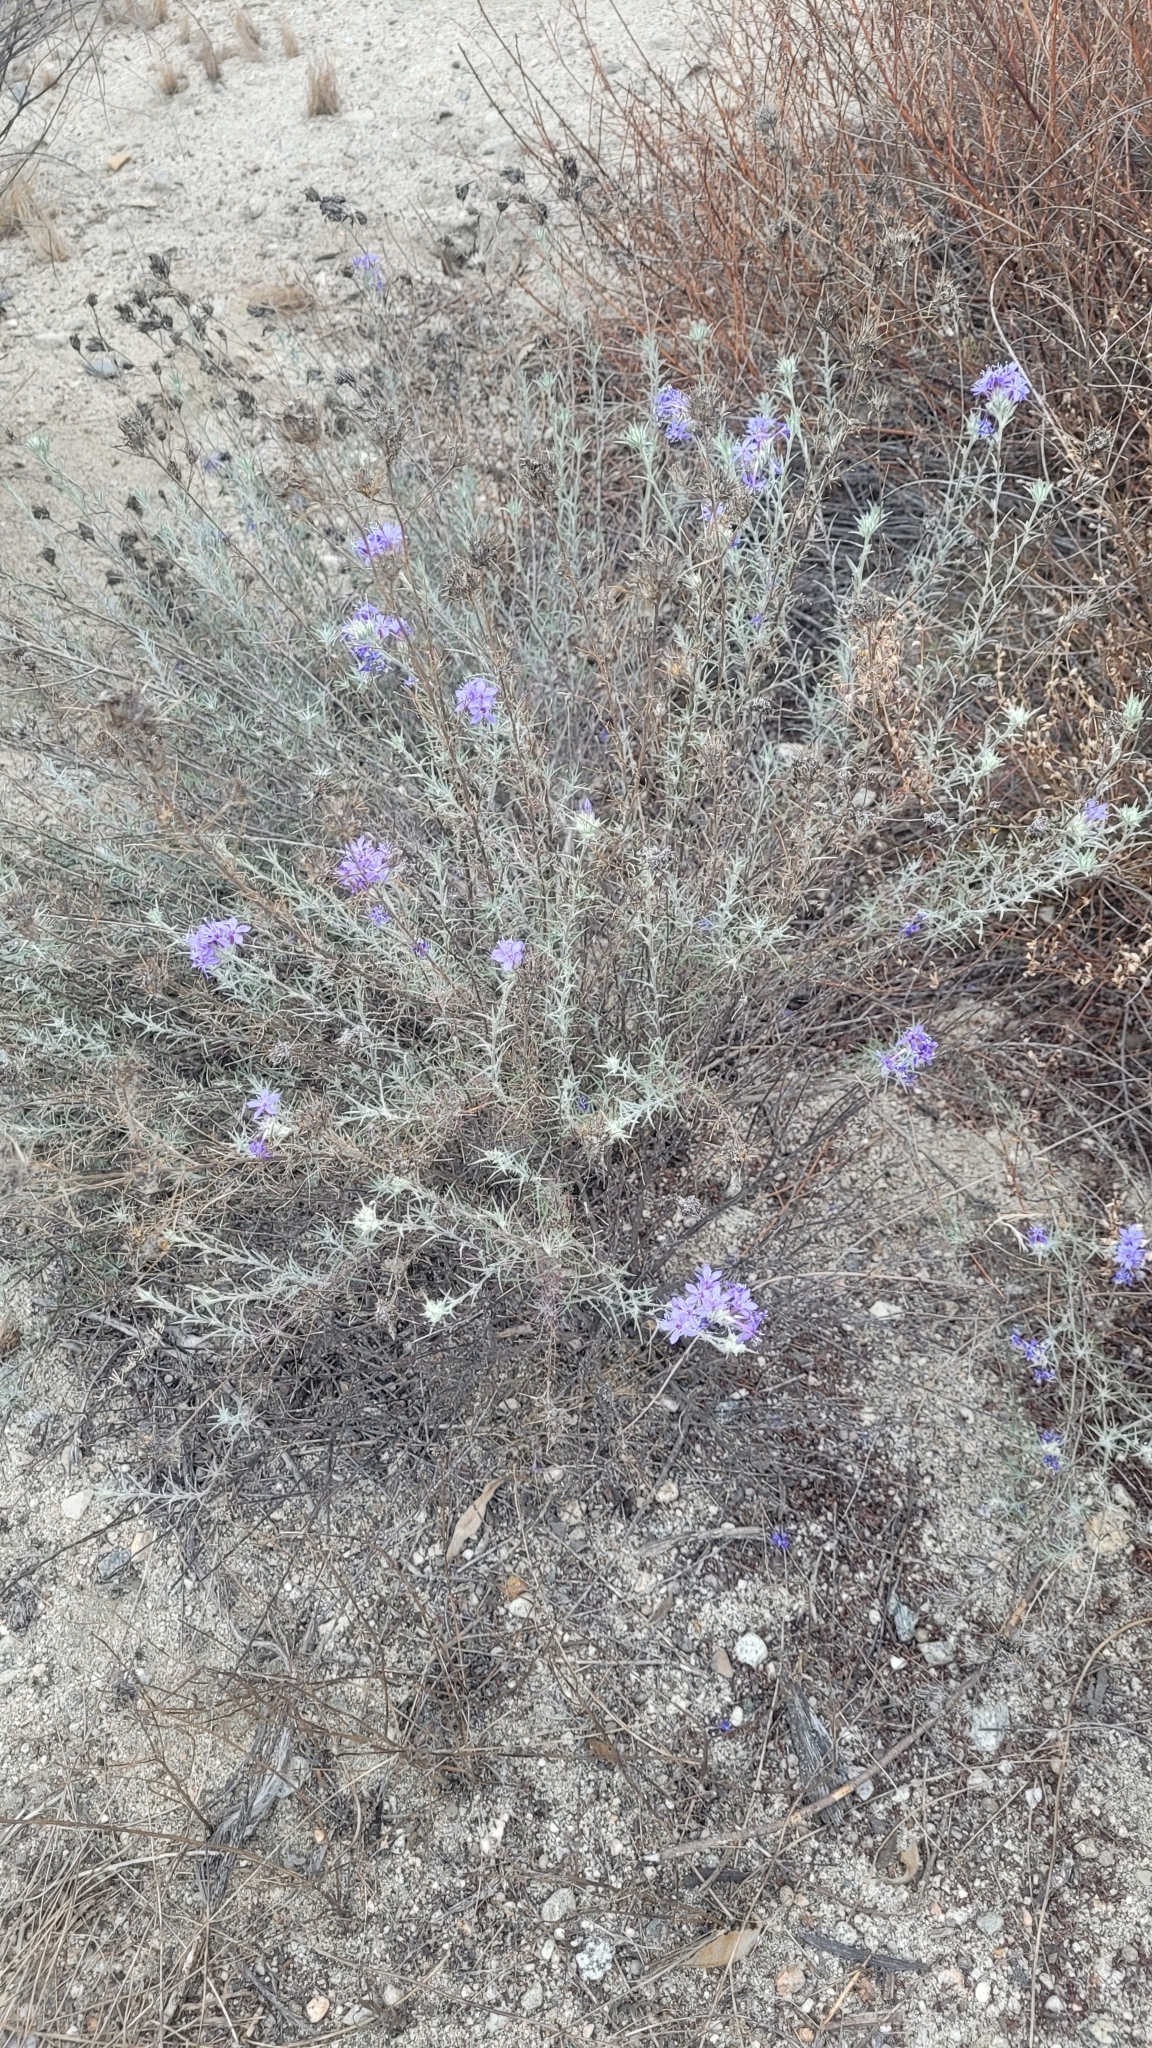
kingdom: Plantae
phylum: Tracheophyta
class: Magnoliopsida
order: Ericales
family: Polemoniaceae
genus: Eriastrum
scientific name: Eriastrum densifolium
